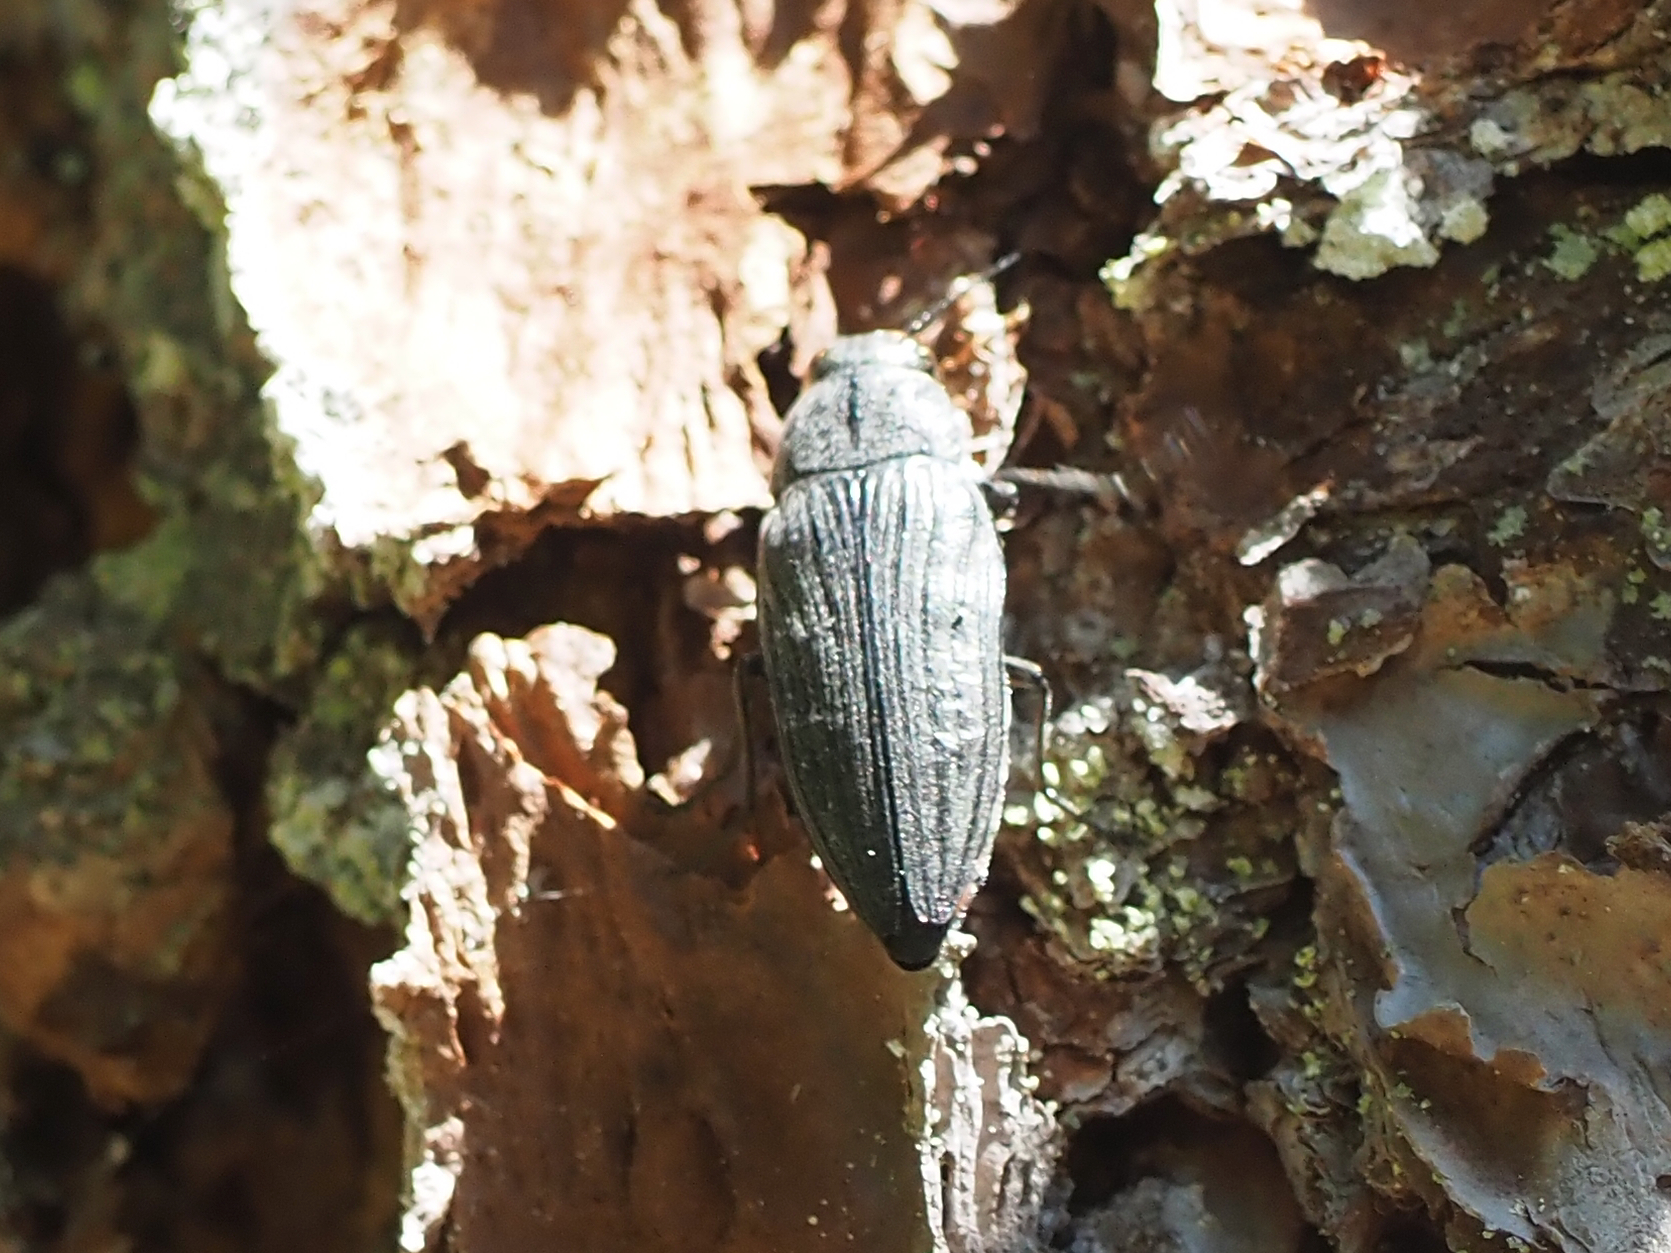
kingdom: Animalia
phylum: Arthropoda
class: Insecta
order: Coleoptera
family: Buprestidae
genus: Buprestis
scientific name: Buprestis lyrata
